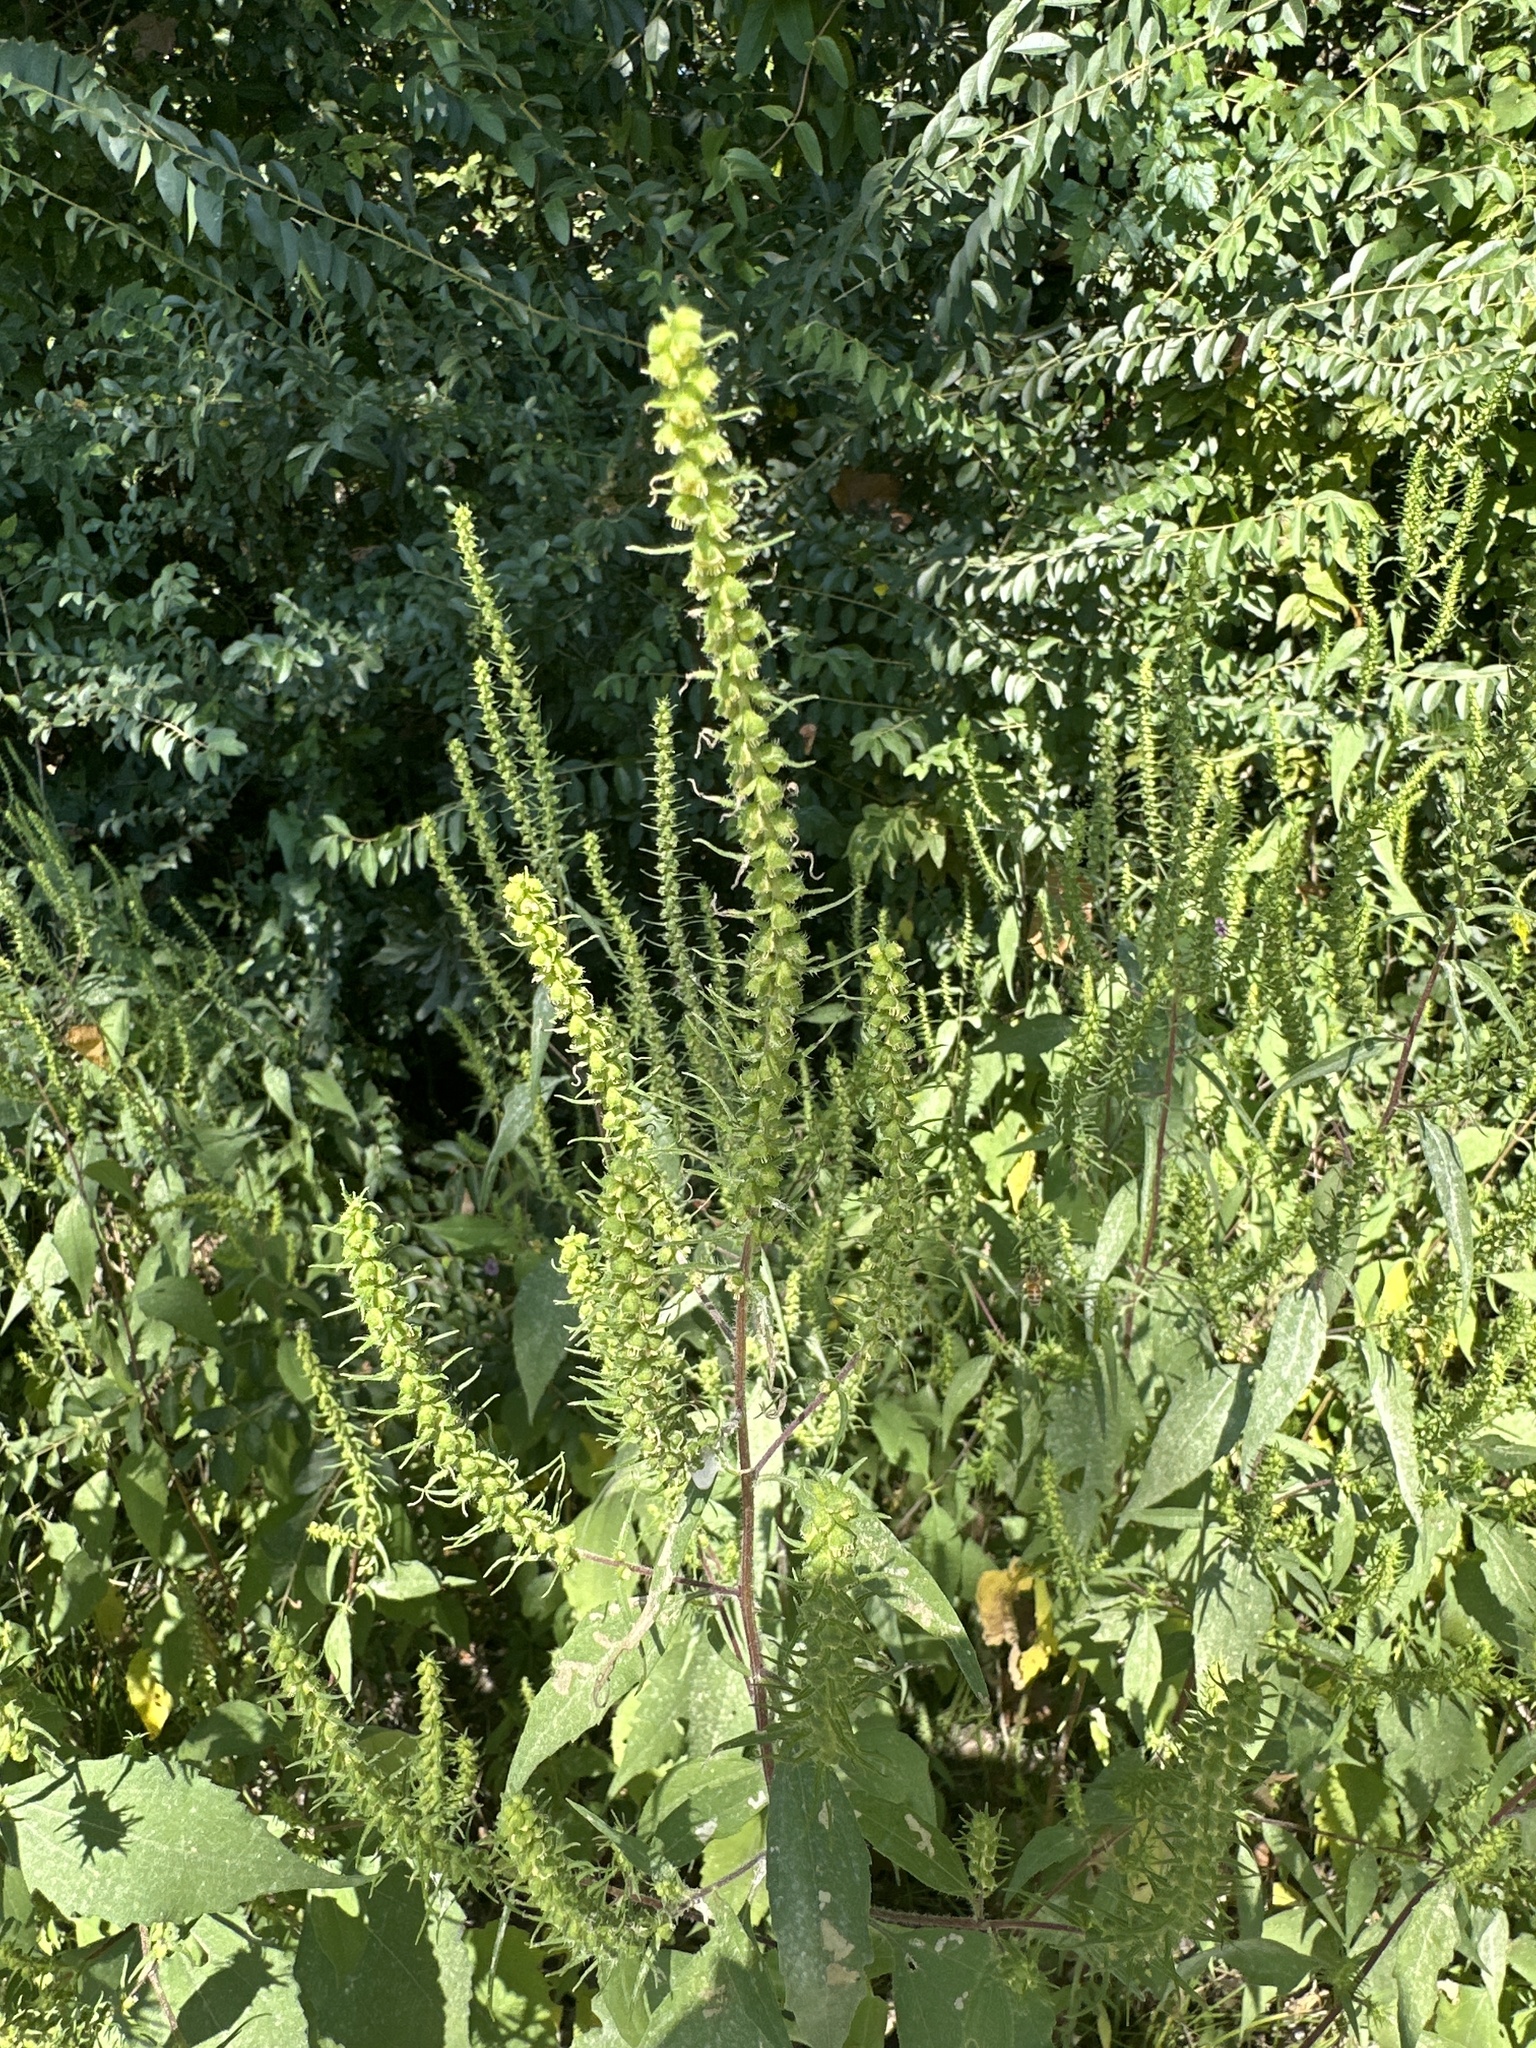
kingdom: Plantae
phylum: Tracheophyta
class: Magnoliopsida
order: Asterales
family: Asteraceae
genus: Iva
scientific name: Iva annua
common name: Marsh-elder
